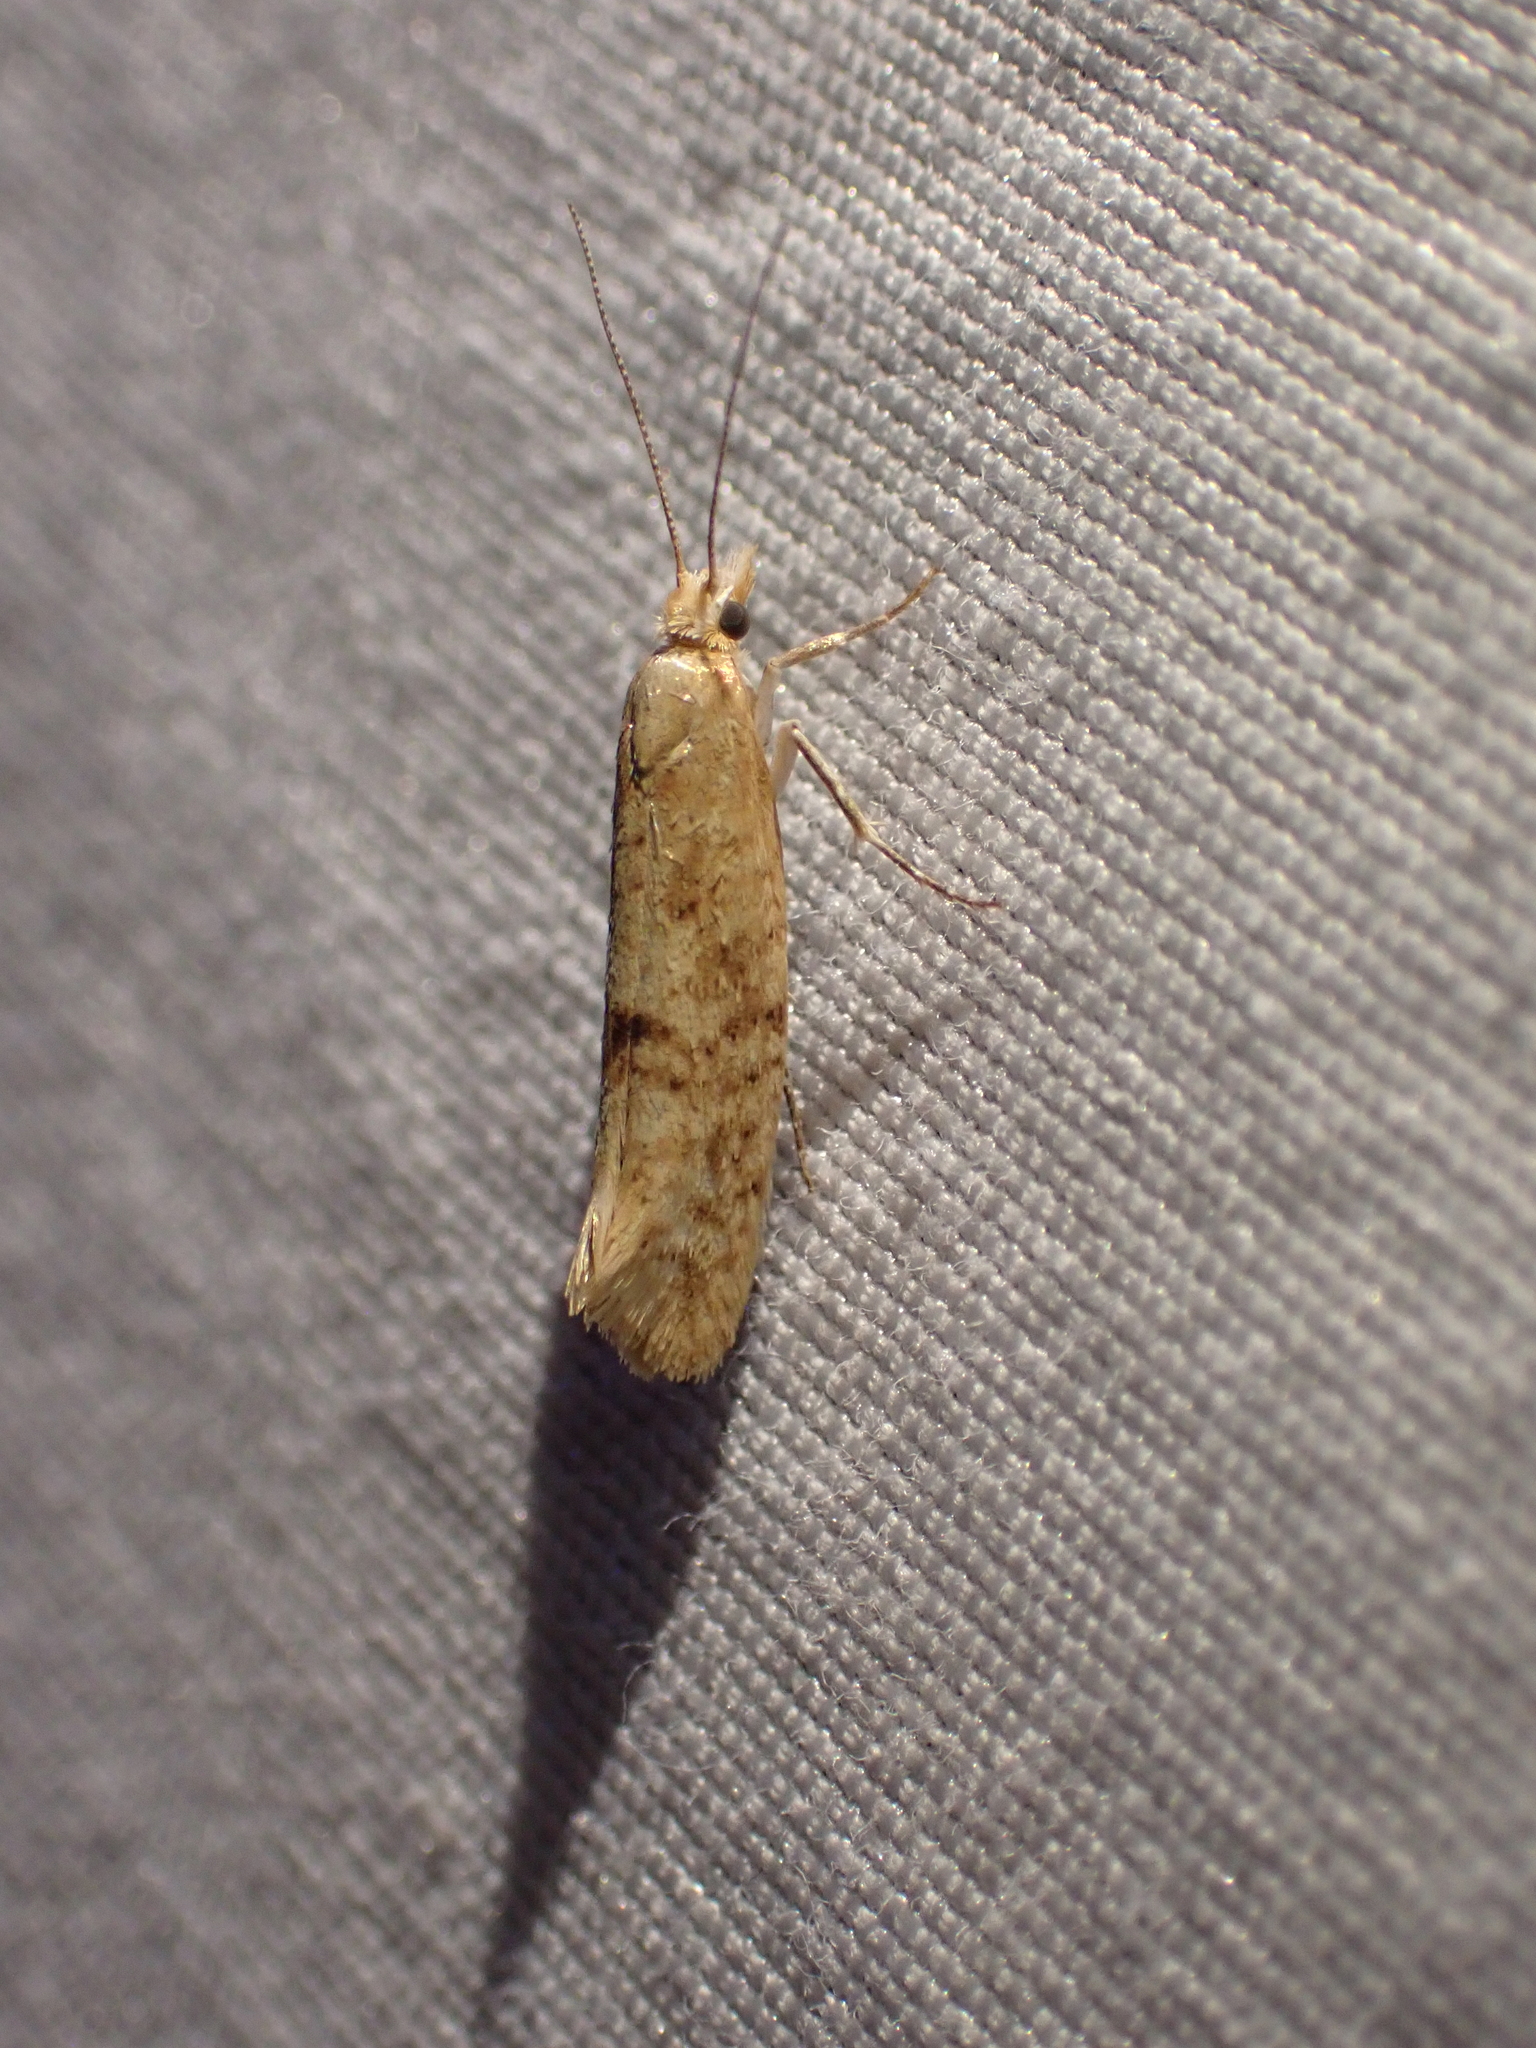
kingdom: Animalia
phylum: Arthropoda
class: Insecta
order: Lepidoptera
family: Ypsolophidae
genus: Ypsolopha
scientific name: Ypsolopha cervella
